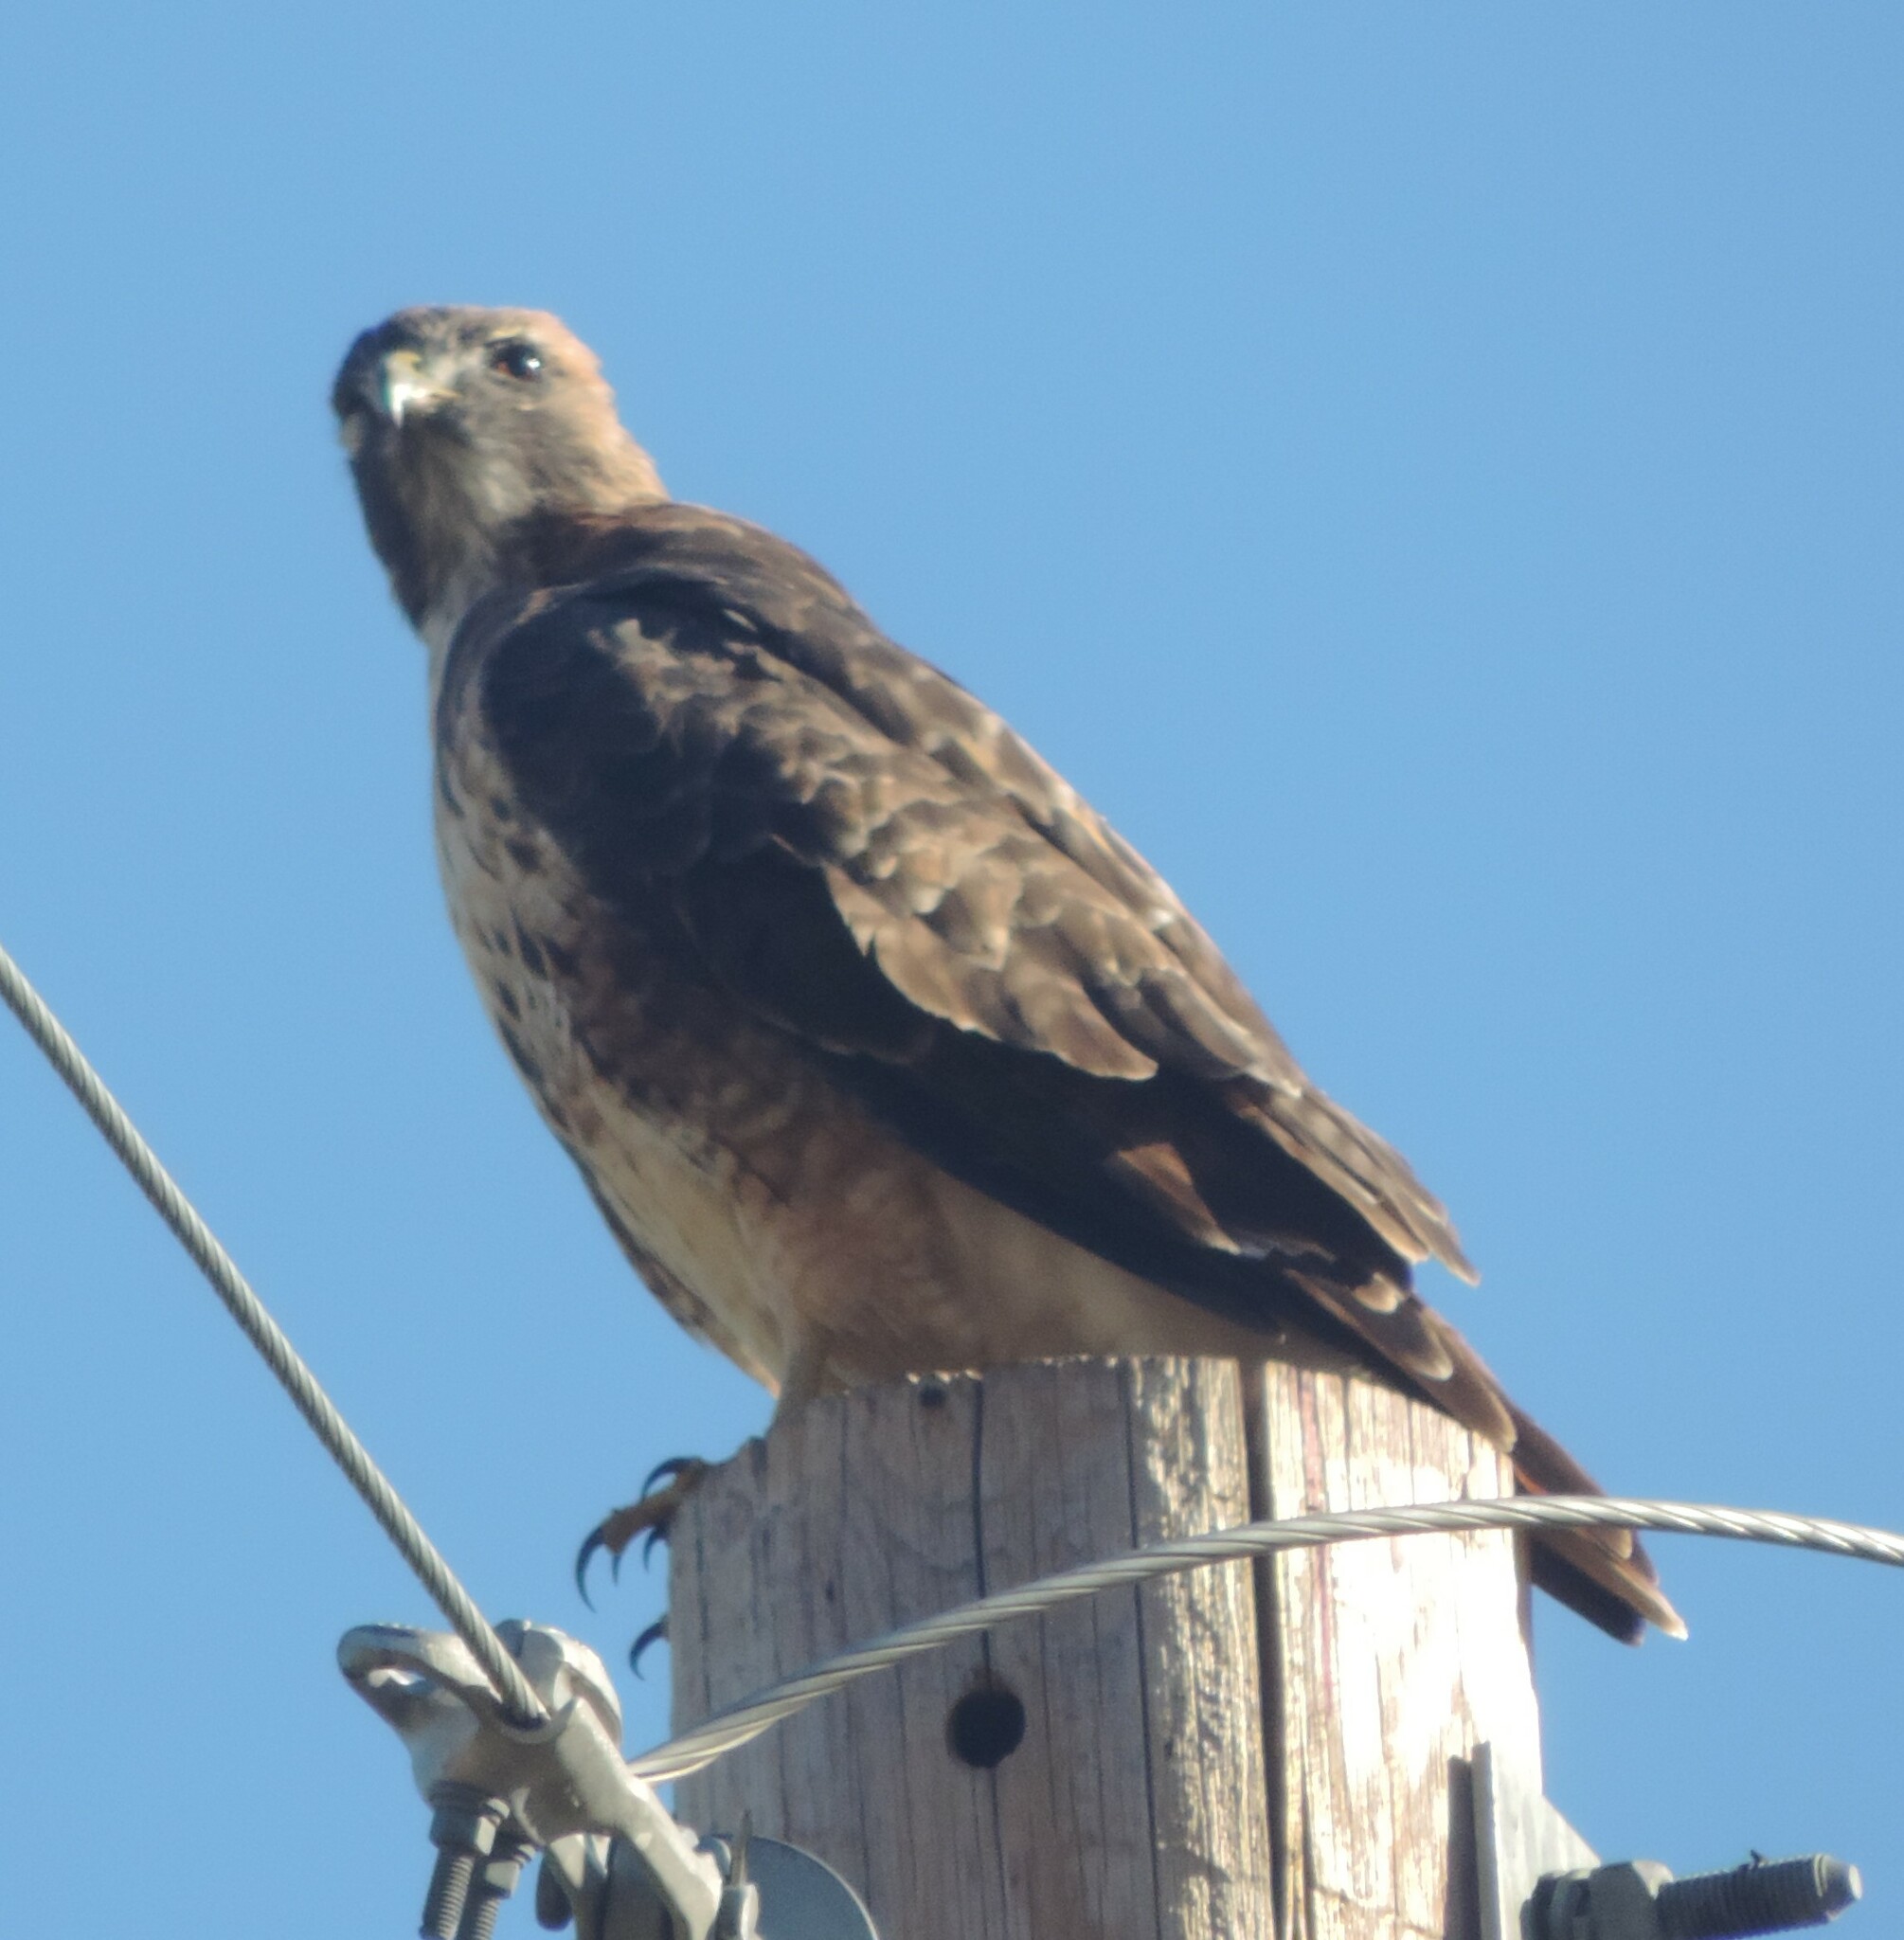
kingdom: Animalia
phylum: Chordata
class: Aves
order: Accipitriformes
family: Accipitridae
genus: Buteo
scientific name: Buteo jamaicensis
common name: Red-tailed hawk
